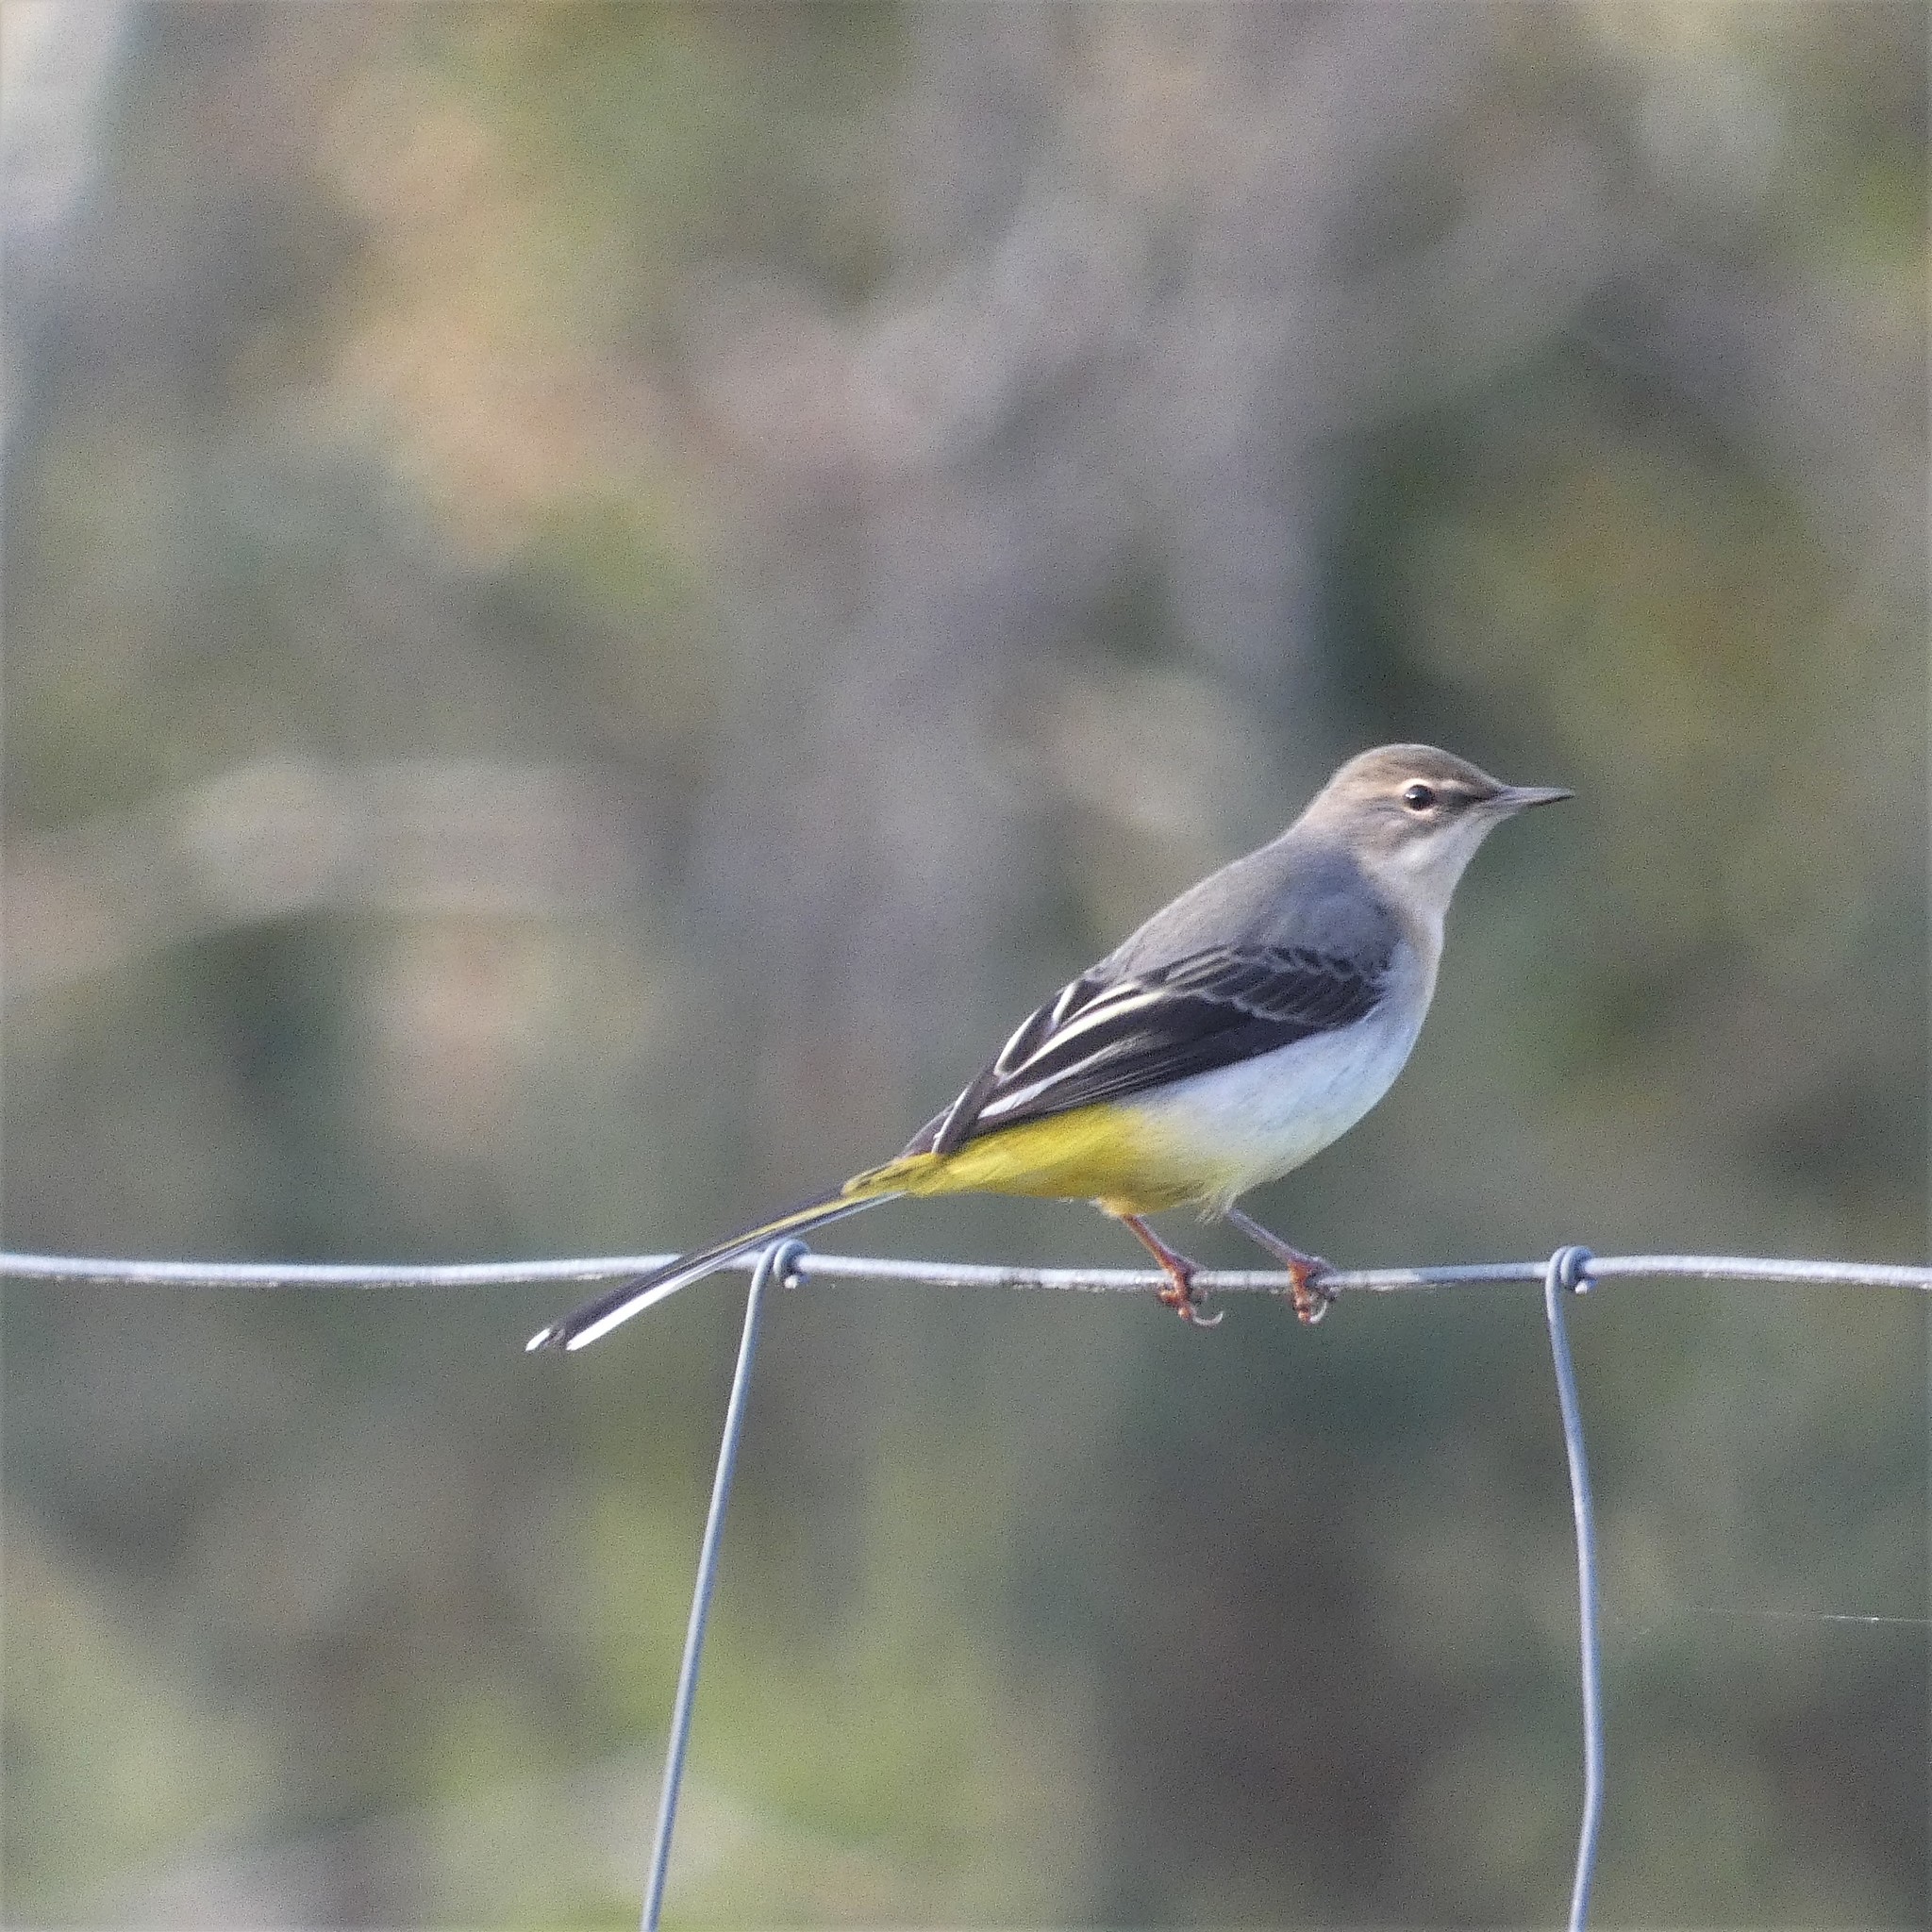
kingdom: Animalia
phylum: Chordata
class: Aves
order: Passeriformes
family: Motacillidae
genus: Motacilla
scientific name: Motacilla cinerea
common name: Grey wagtail
